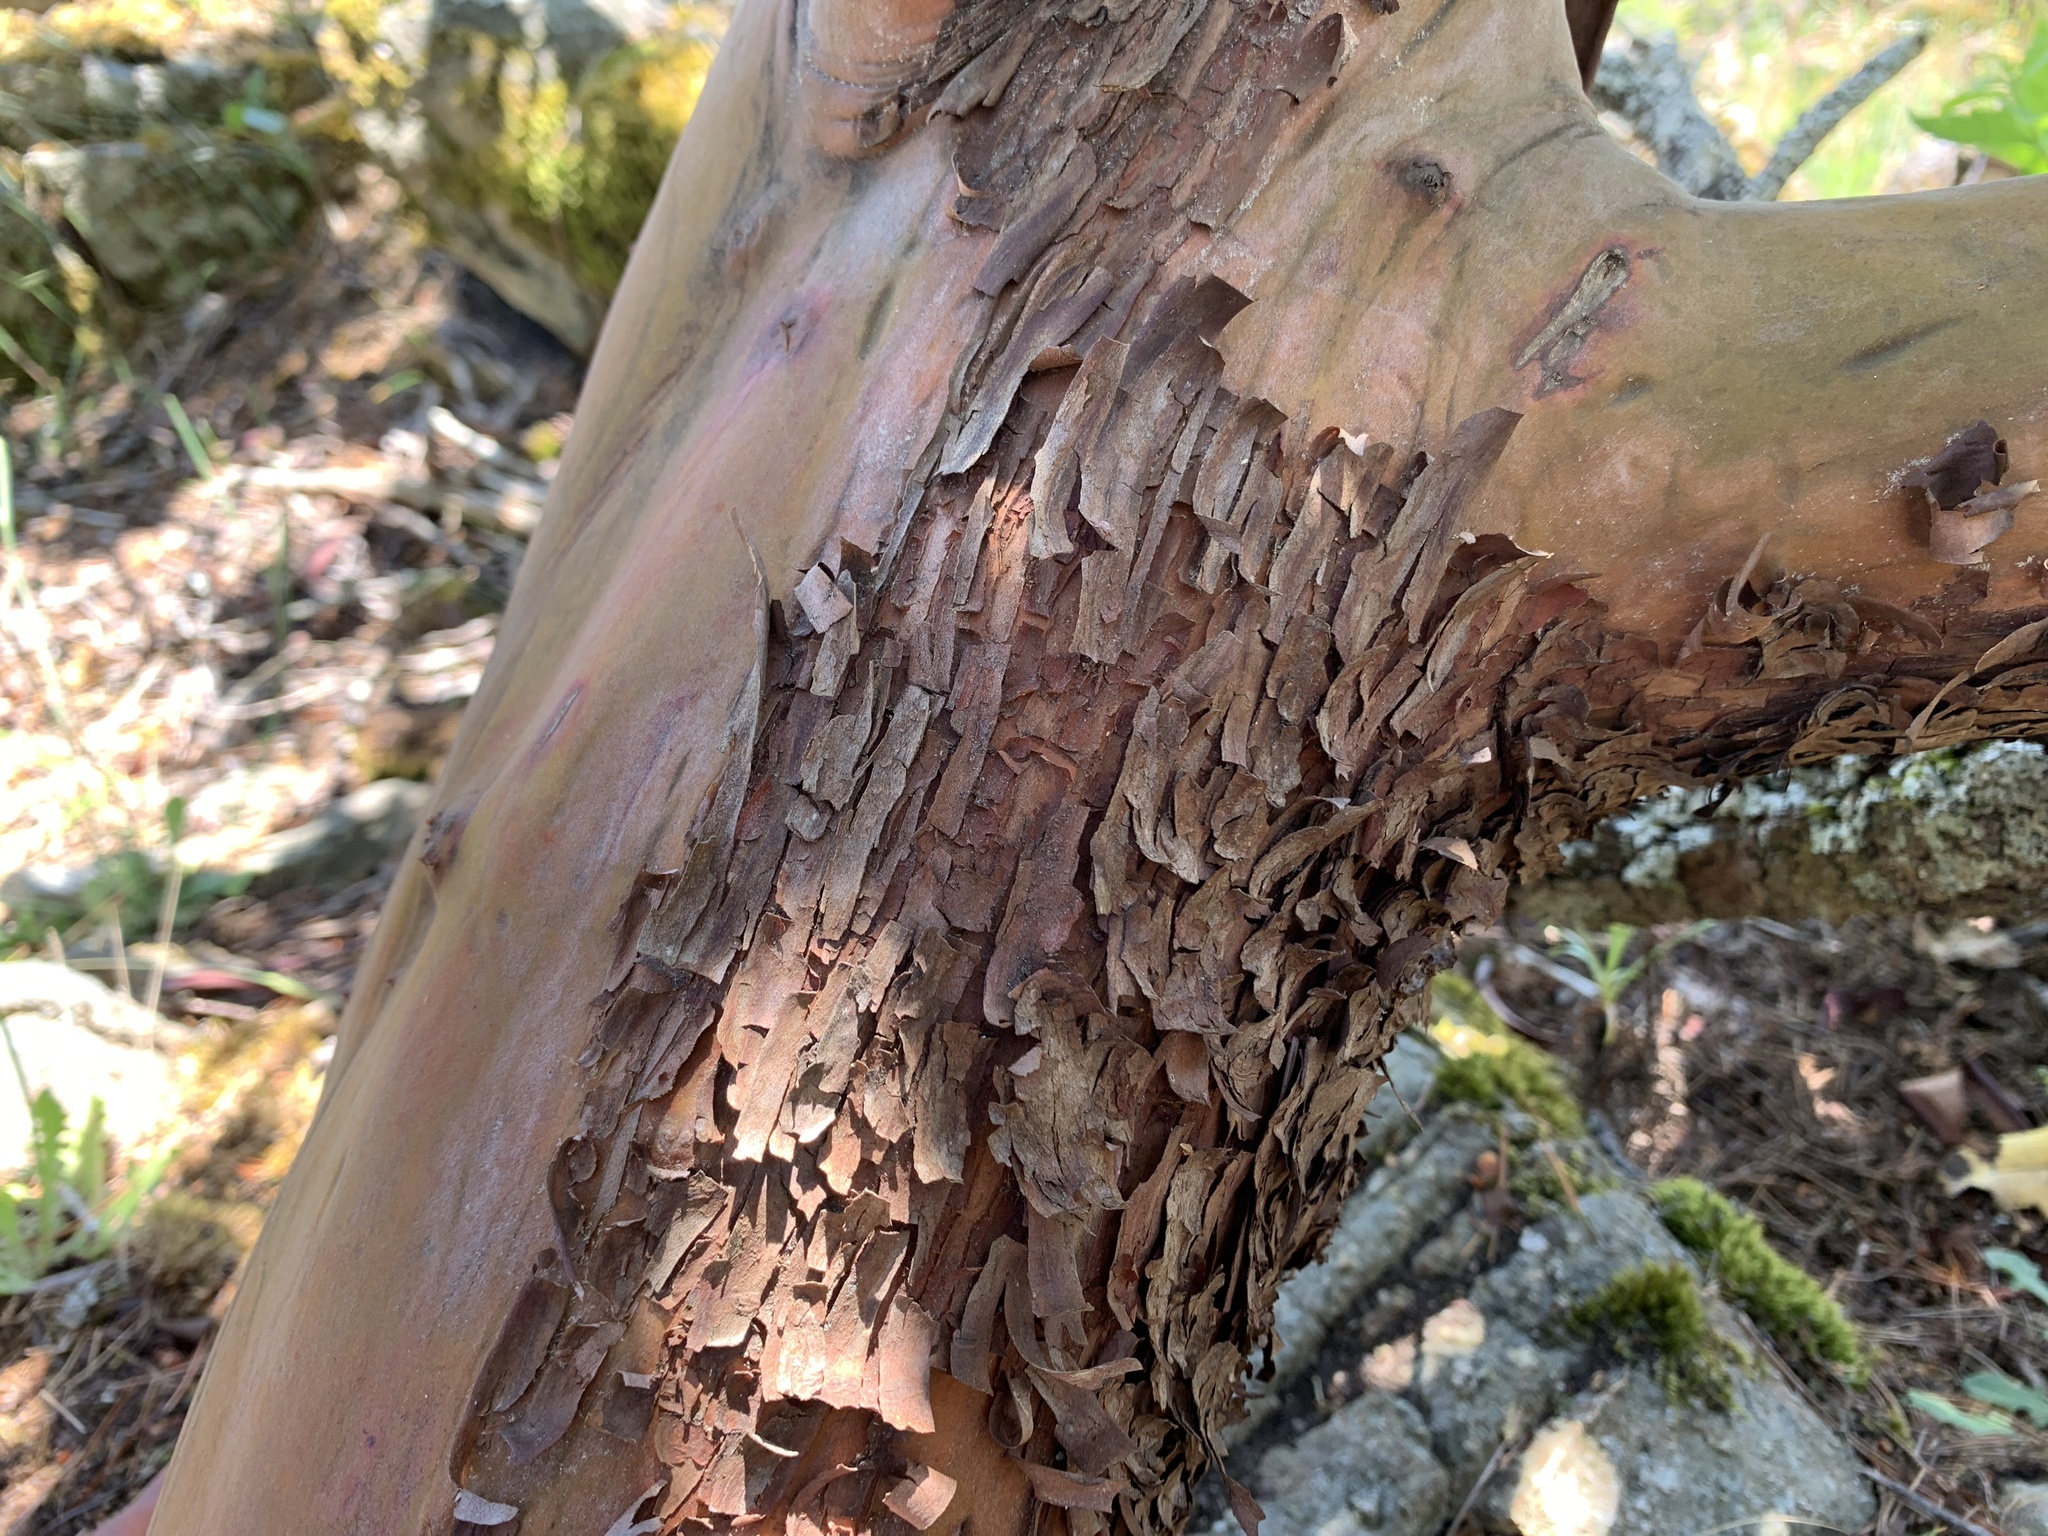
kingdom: Plantae
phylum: Tracheophyta
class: Magnoliopsida
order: Ericales
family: Ericaceae
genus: Arbutus
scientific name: Arbutus menziesii
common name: Pacific madrone
